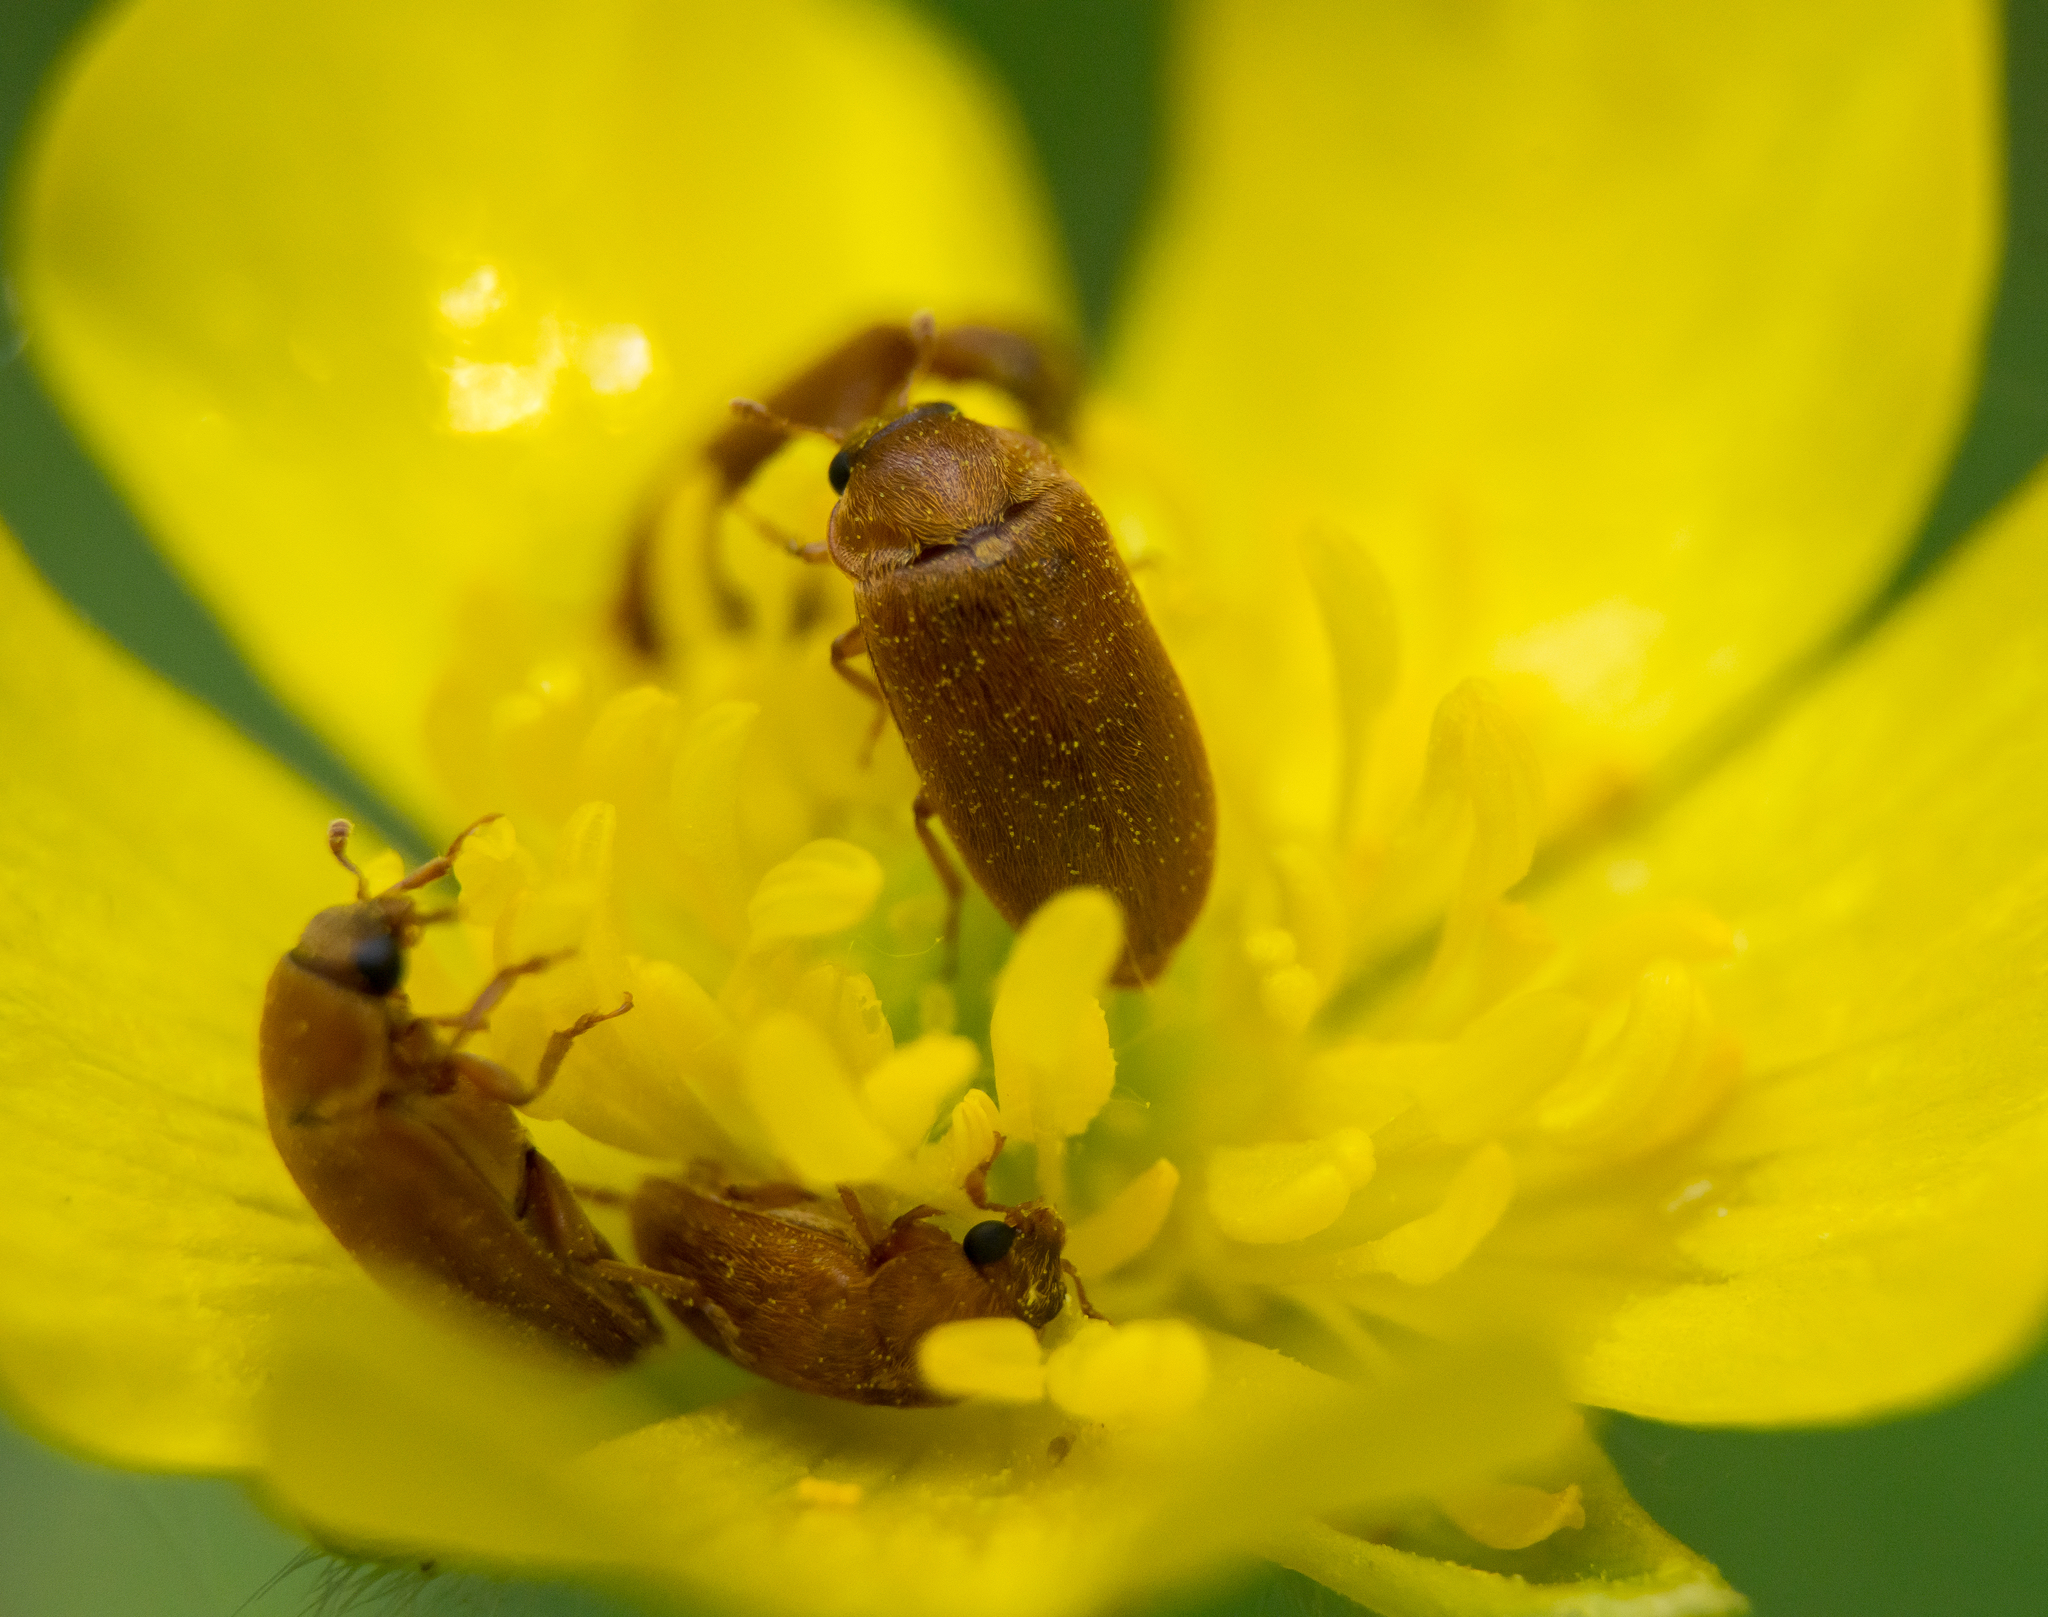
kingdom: Animalia
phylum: Arthropoda
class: Insecta
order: Coleoptera
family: Byturidae
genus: Byturus
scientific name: Byturus ochraceus
